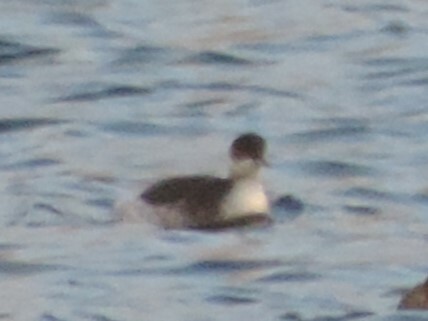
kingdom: Animalia
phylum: Chordata
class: Aves
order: Podicipediformes
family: Podicipedidae
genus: Podiceps
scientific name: Podiceps nigricollis
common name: Black-necked grebe
